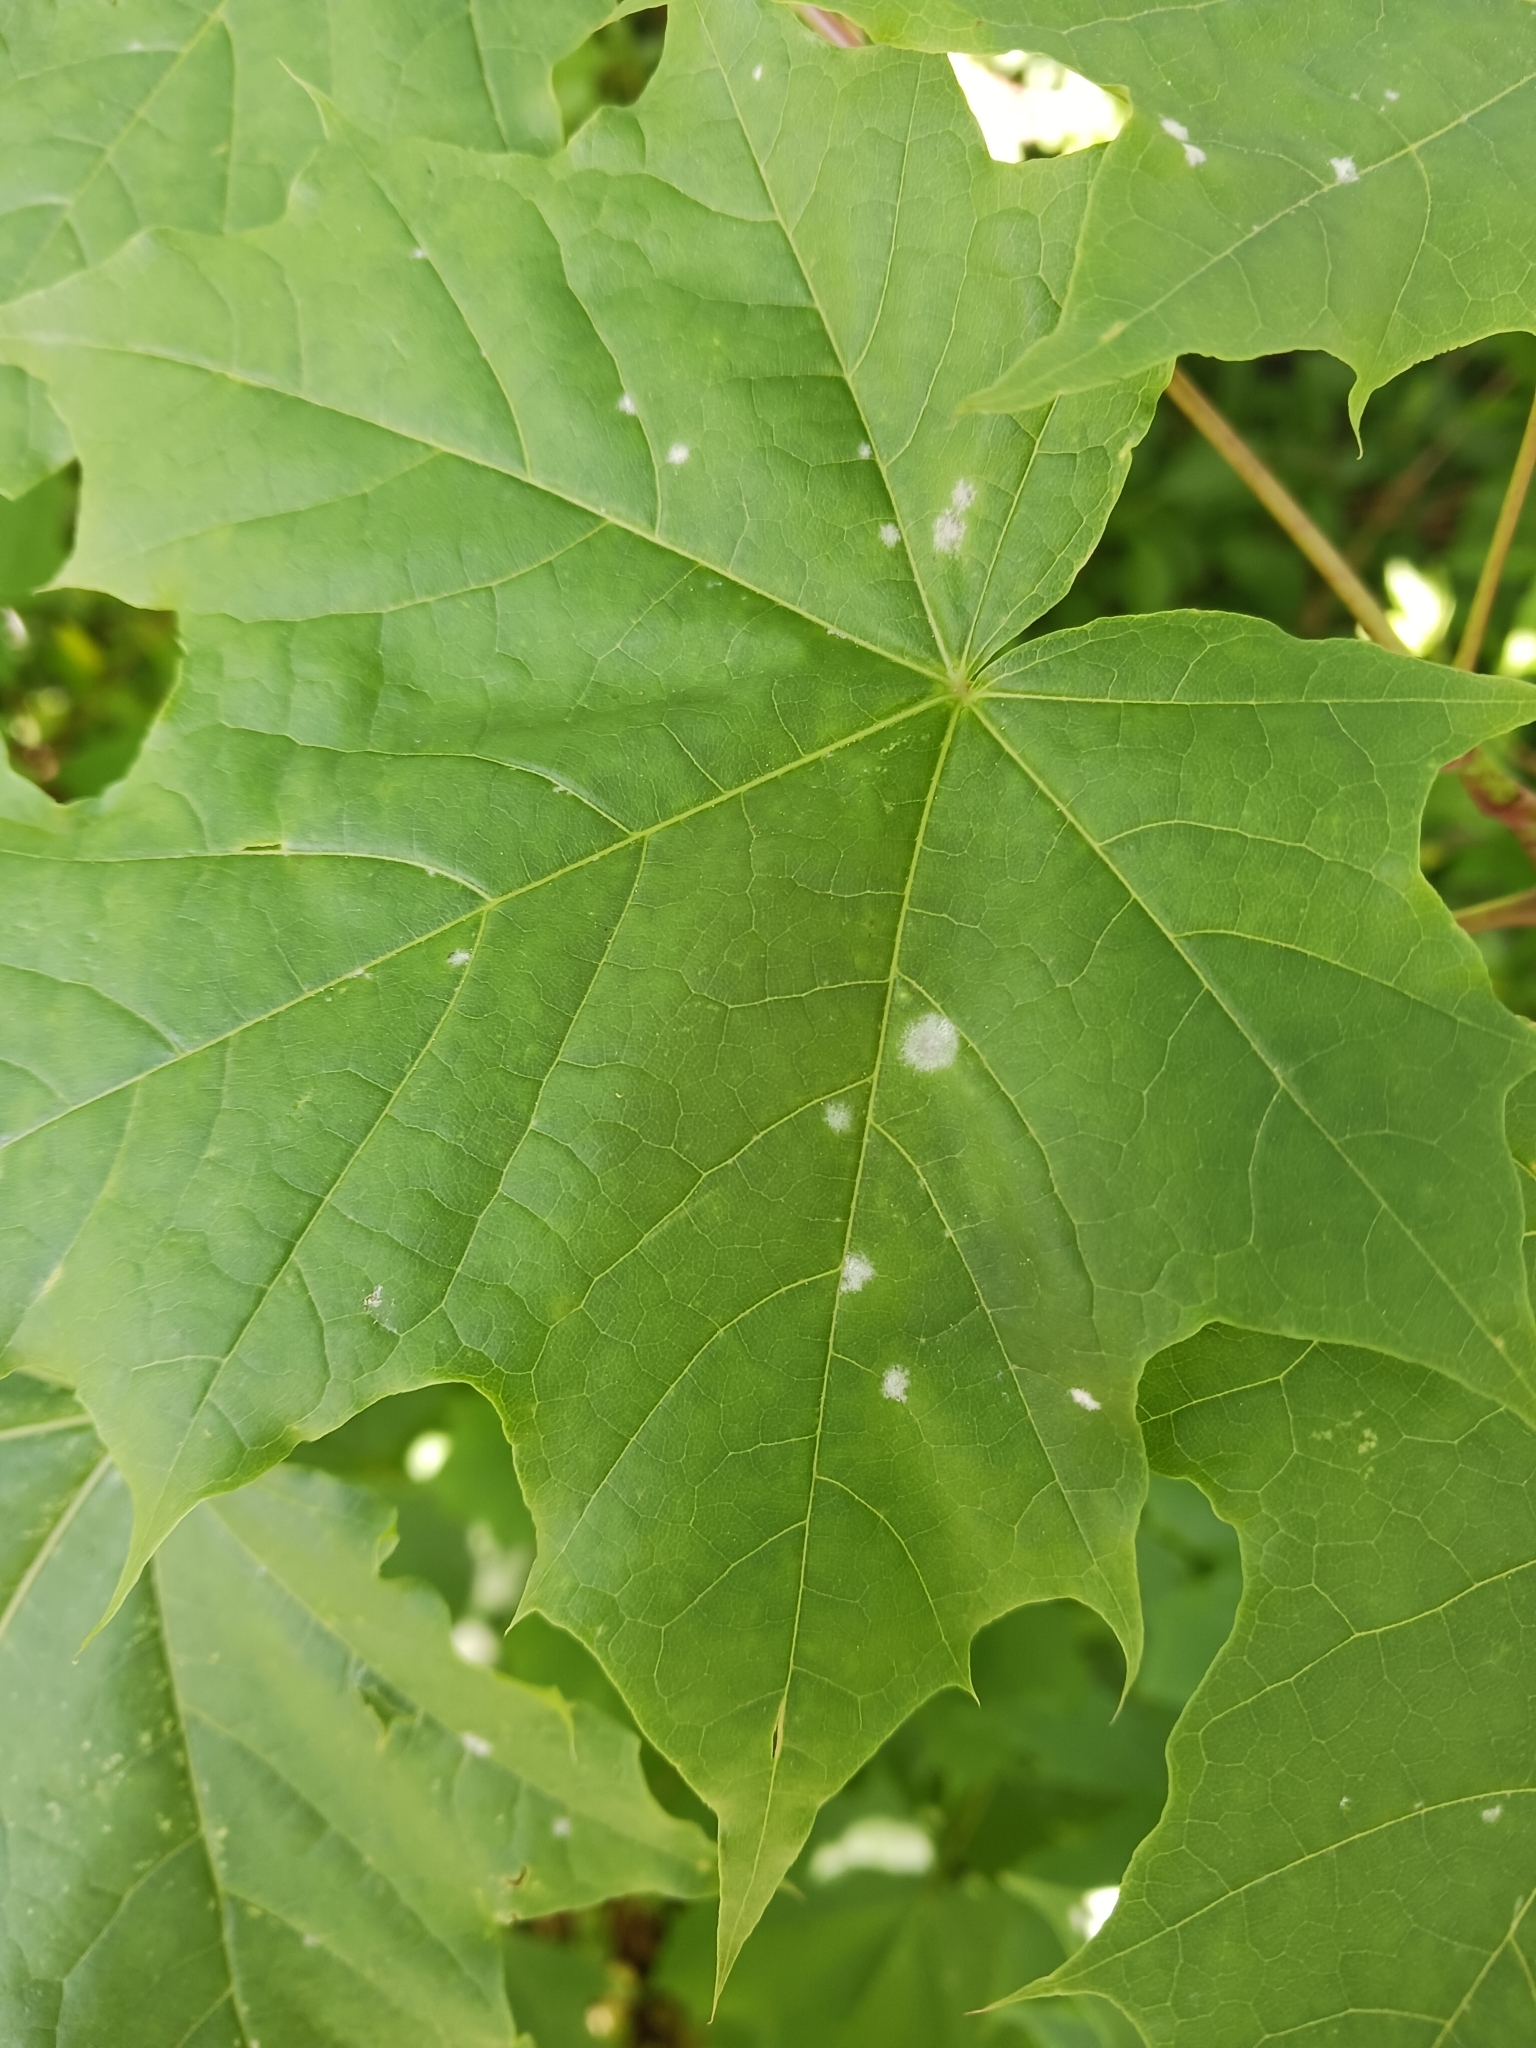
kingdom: Fungi
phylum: Ascomycota
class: Leotiomycetes
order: Helotiales
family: Erysiphaceae
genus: Sawadaea
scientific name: Sawadaea tulasnei
